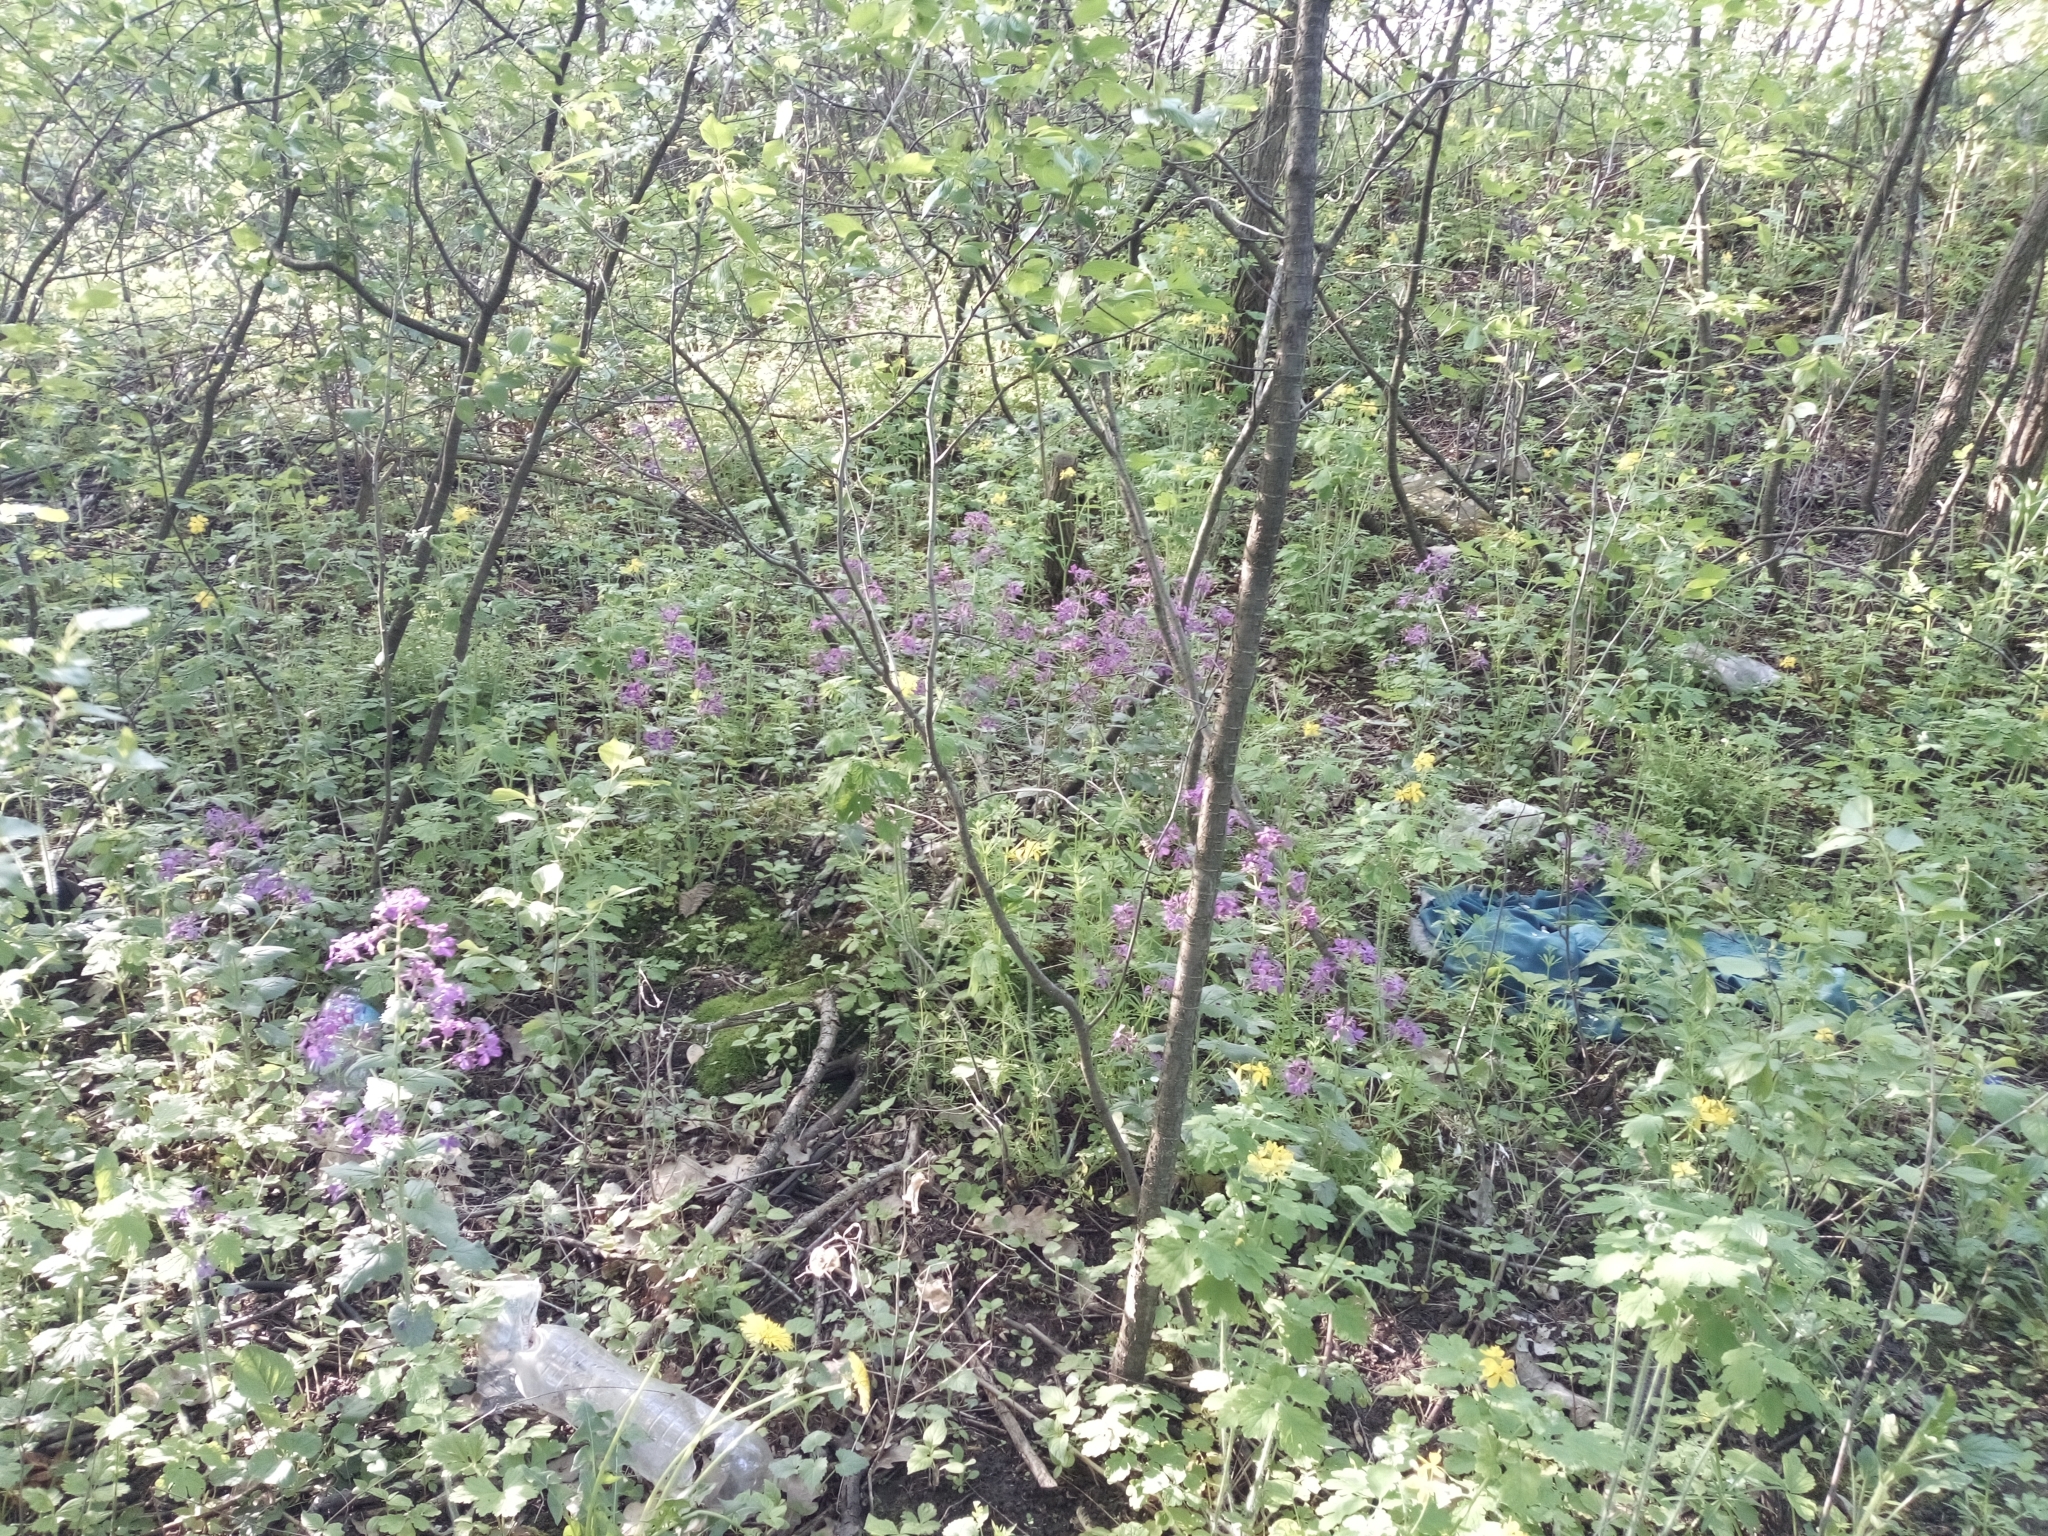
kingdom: Plantae
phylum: Tracheophyta
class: Magnoliopsida
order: Brassicales
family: Brassicaceae
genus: Lunaria
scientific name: Lunaria annua
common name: Honesty
